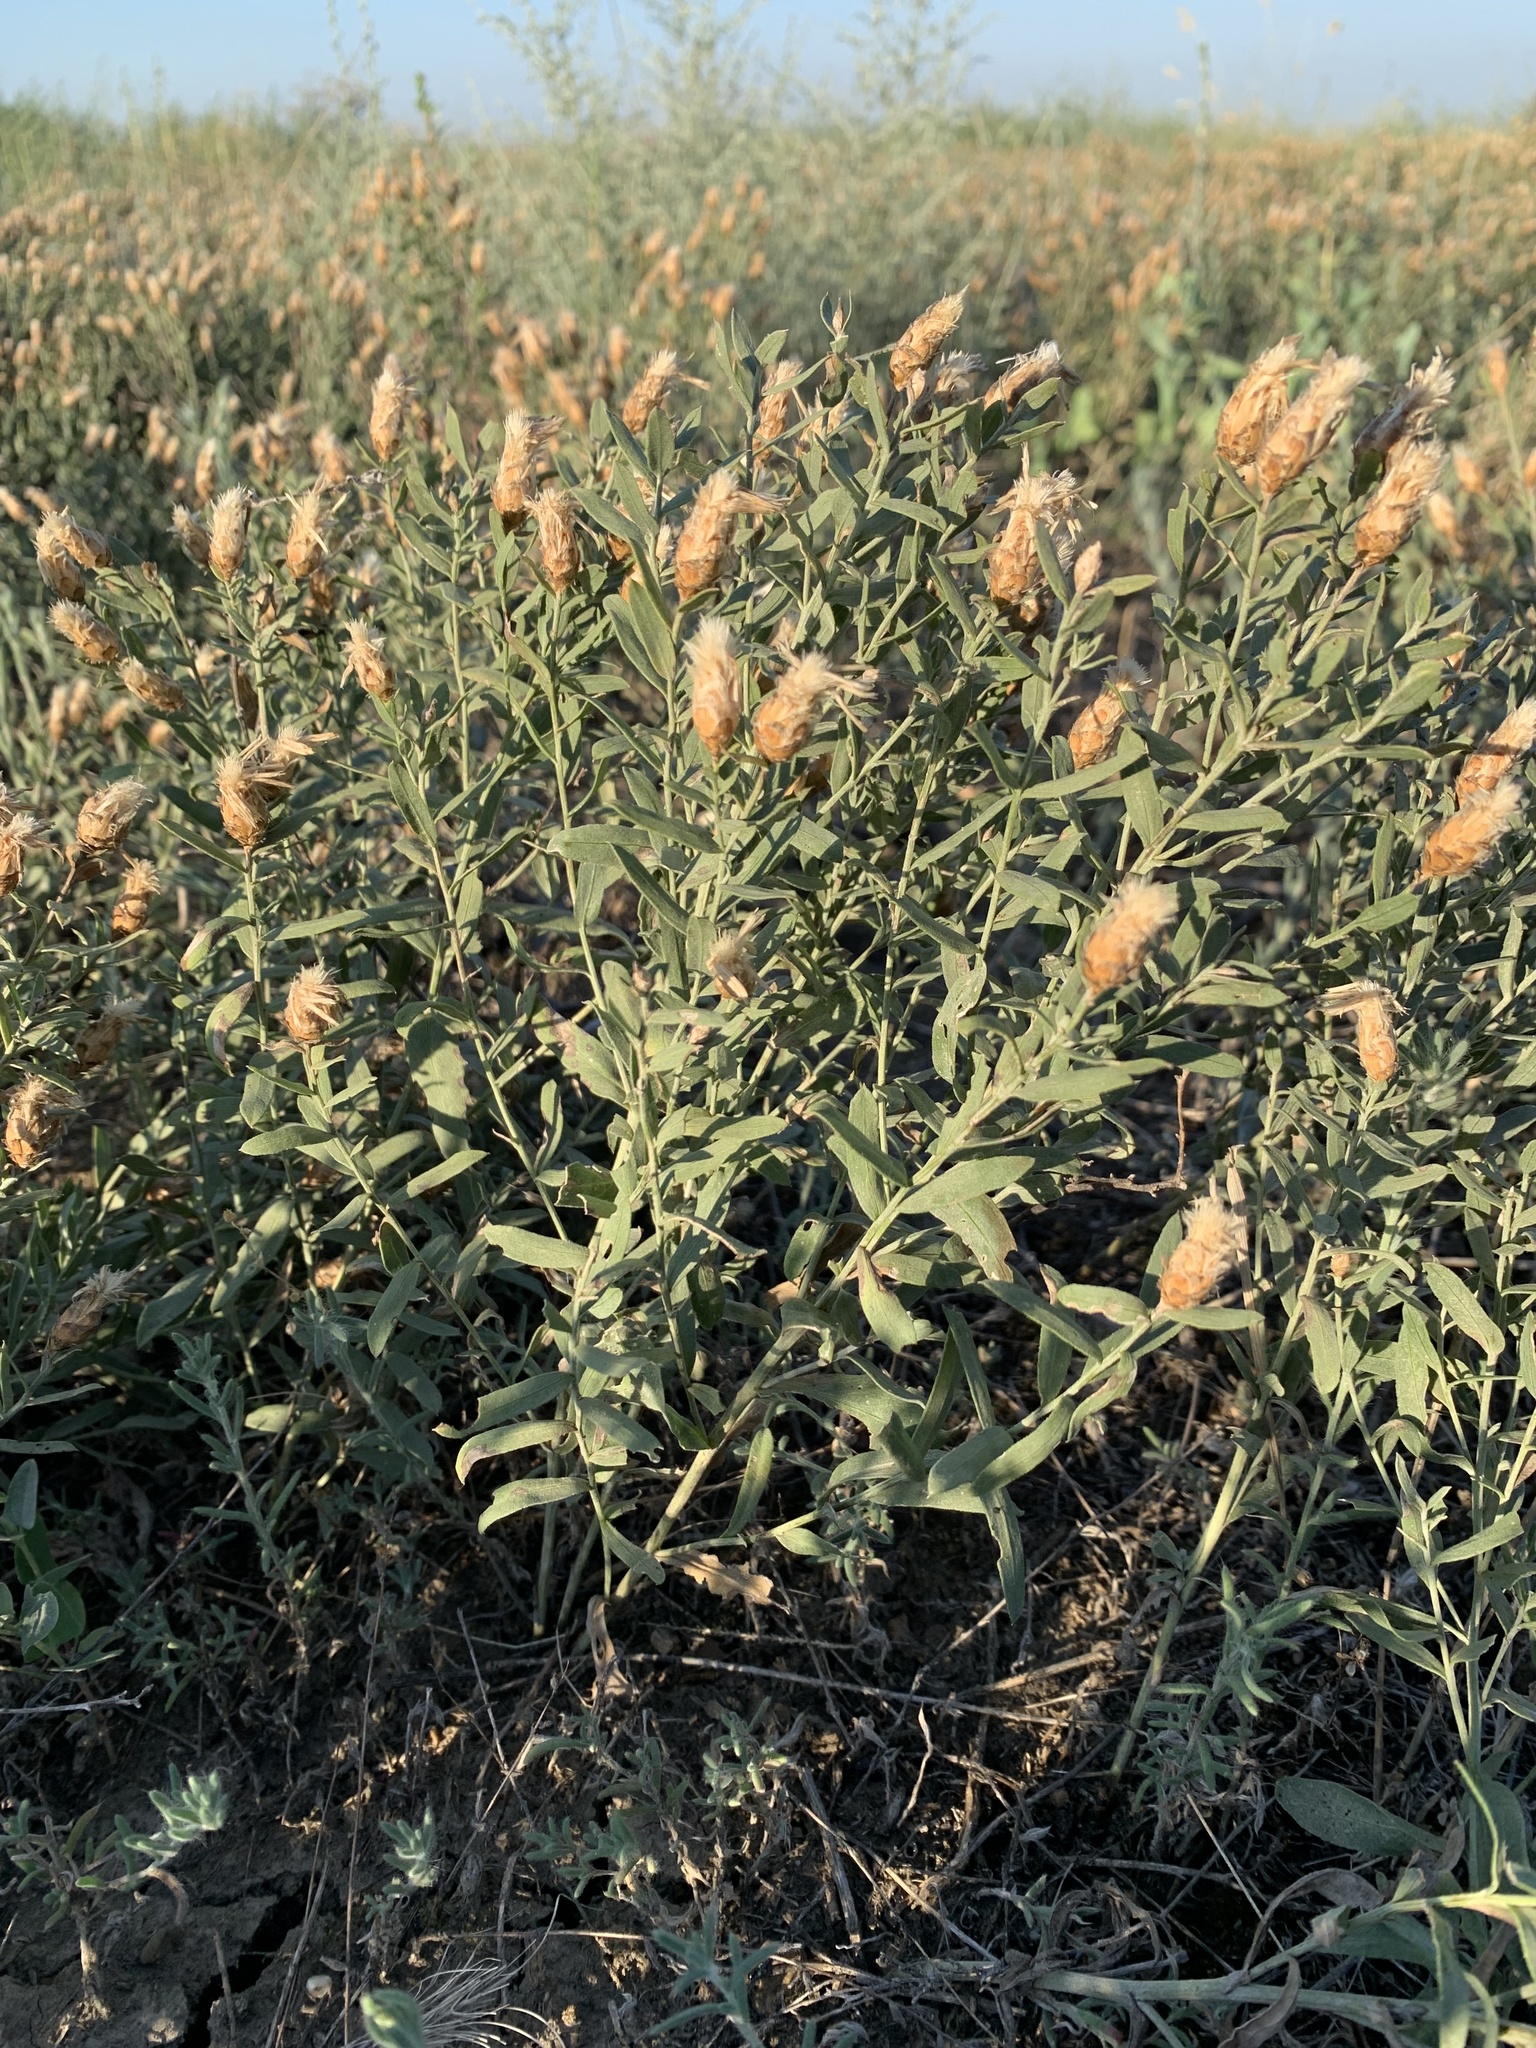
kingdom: Plantae
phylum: Tracheophyta
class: Magnoliopsida
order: Asterales
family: Asteraceae
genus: Leuzea
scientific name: Leuzea repens
